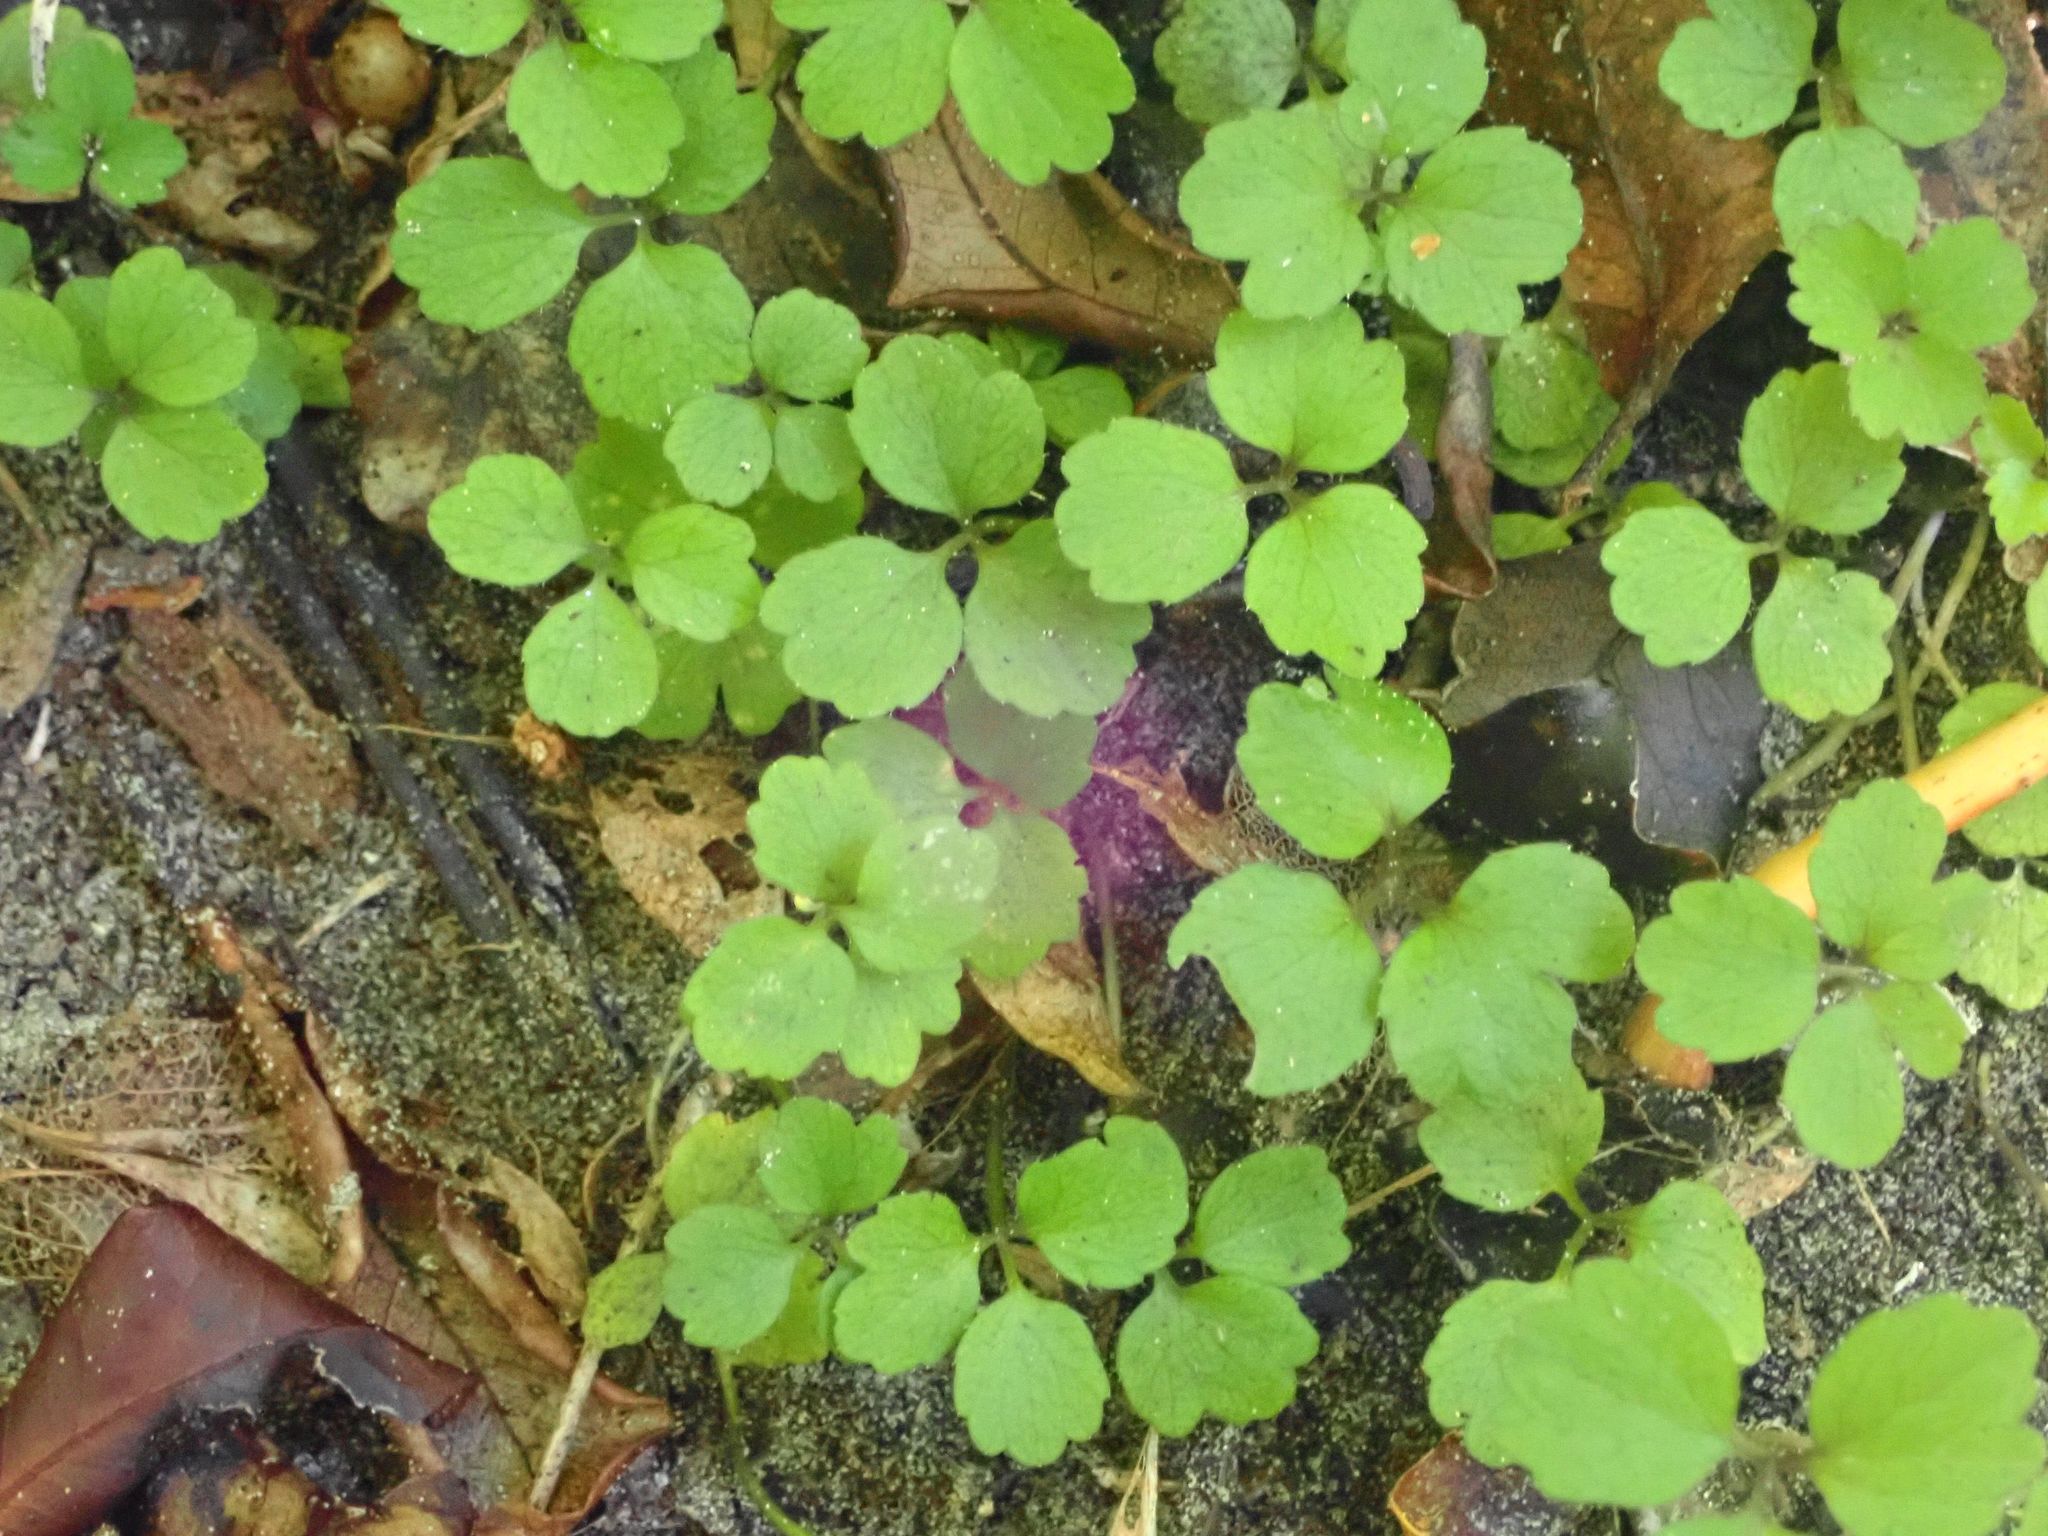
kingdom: Plantae
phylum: Tracheophyta
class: Magnoliopsida
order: Apiales
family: Apiaceae
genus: Azorella
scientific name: Azorella hookeri
